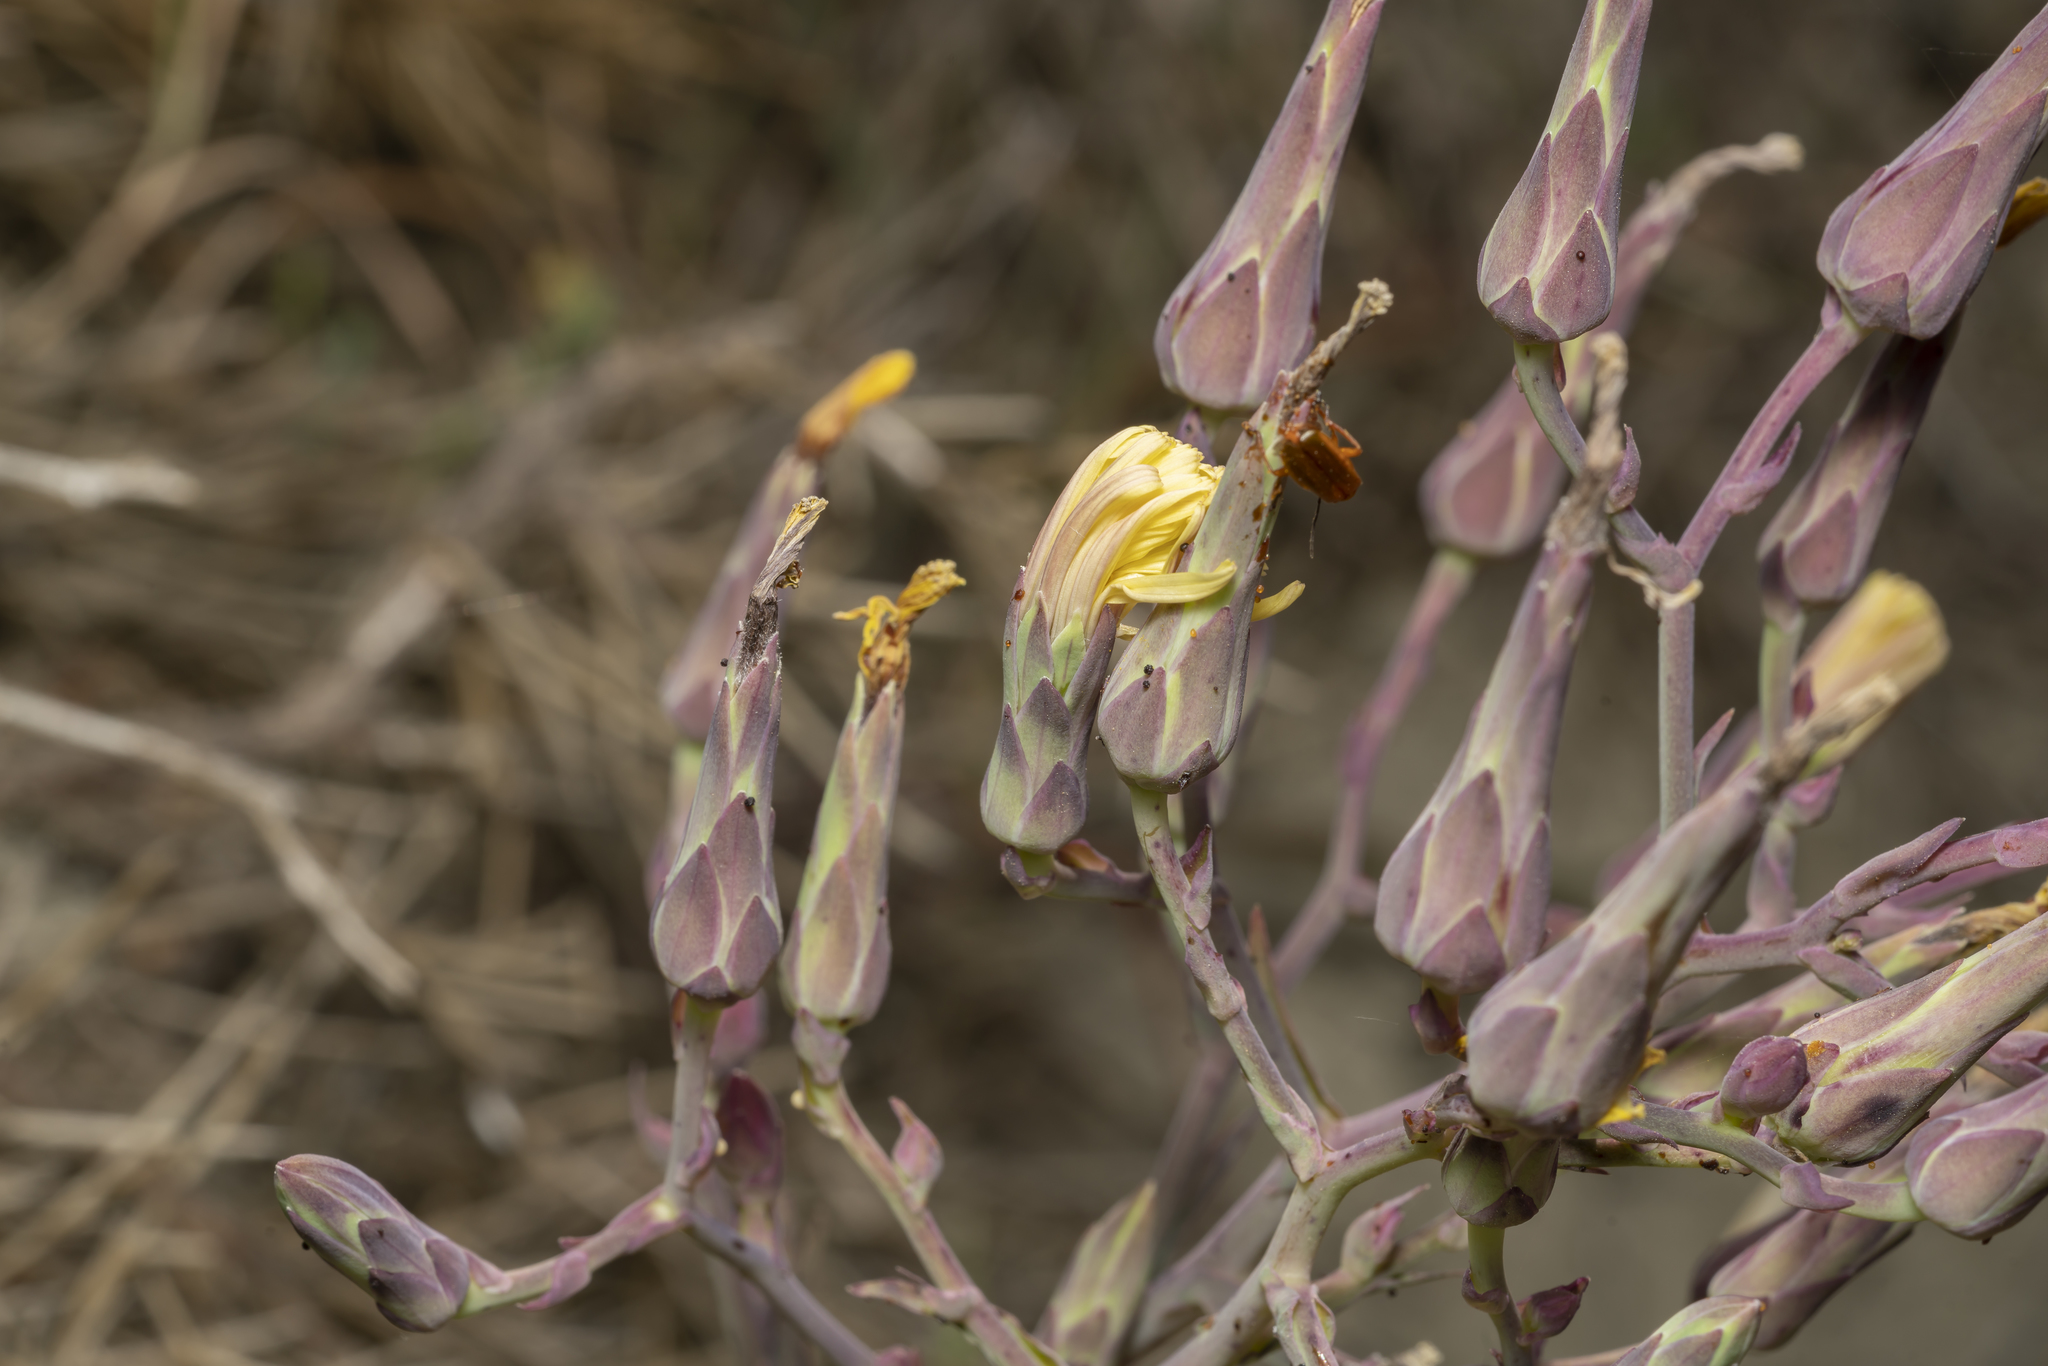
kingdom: Plantae
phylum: Tracheophyta
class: Magnoliopsida
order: Asterales
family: Asteraceae
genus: Lactuca
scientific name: Lactuca tuberosa
